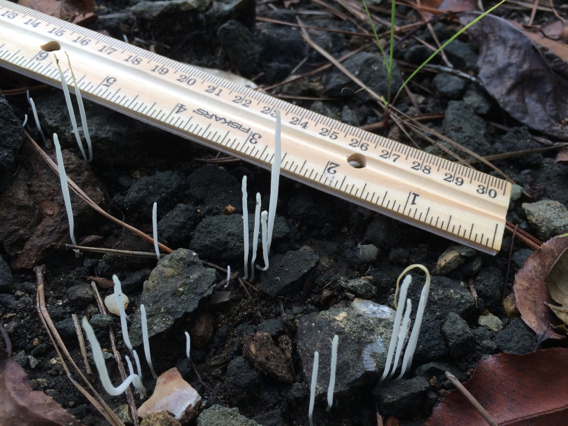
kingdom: Fungi
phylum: Basidiomycota
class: Agaricomycetes
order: Agaricales
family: Clavariaceae
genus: Clavaria
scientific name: Clavaria fragilis
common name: White spindles
